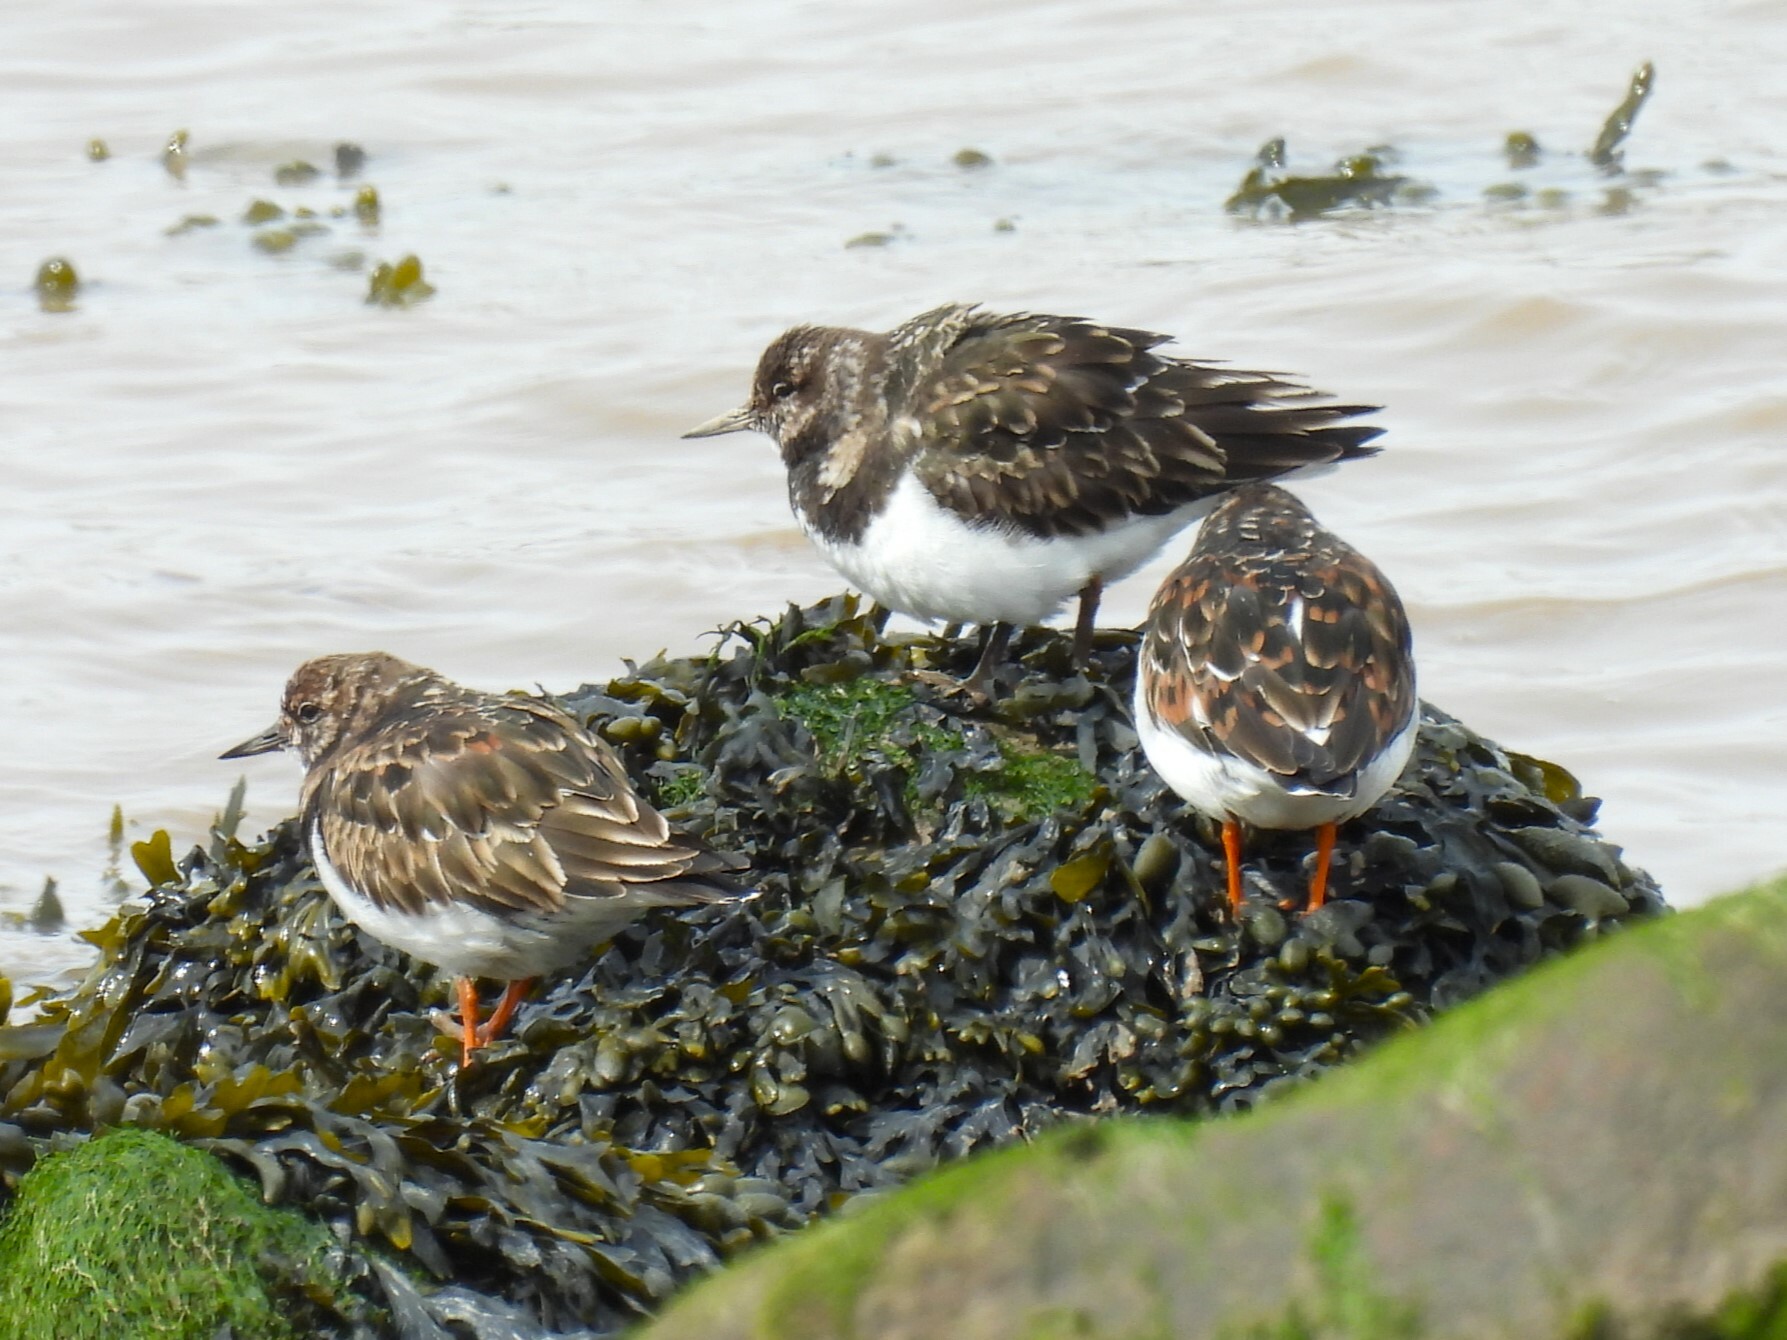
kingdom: Animalia
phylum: Chordata
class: Aves
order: Charadriiformes
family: Scolopacidae
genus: Arenaria
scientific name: Arenaria interpres
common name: Ruddy turnstone
